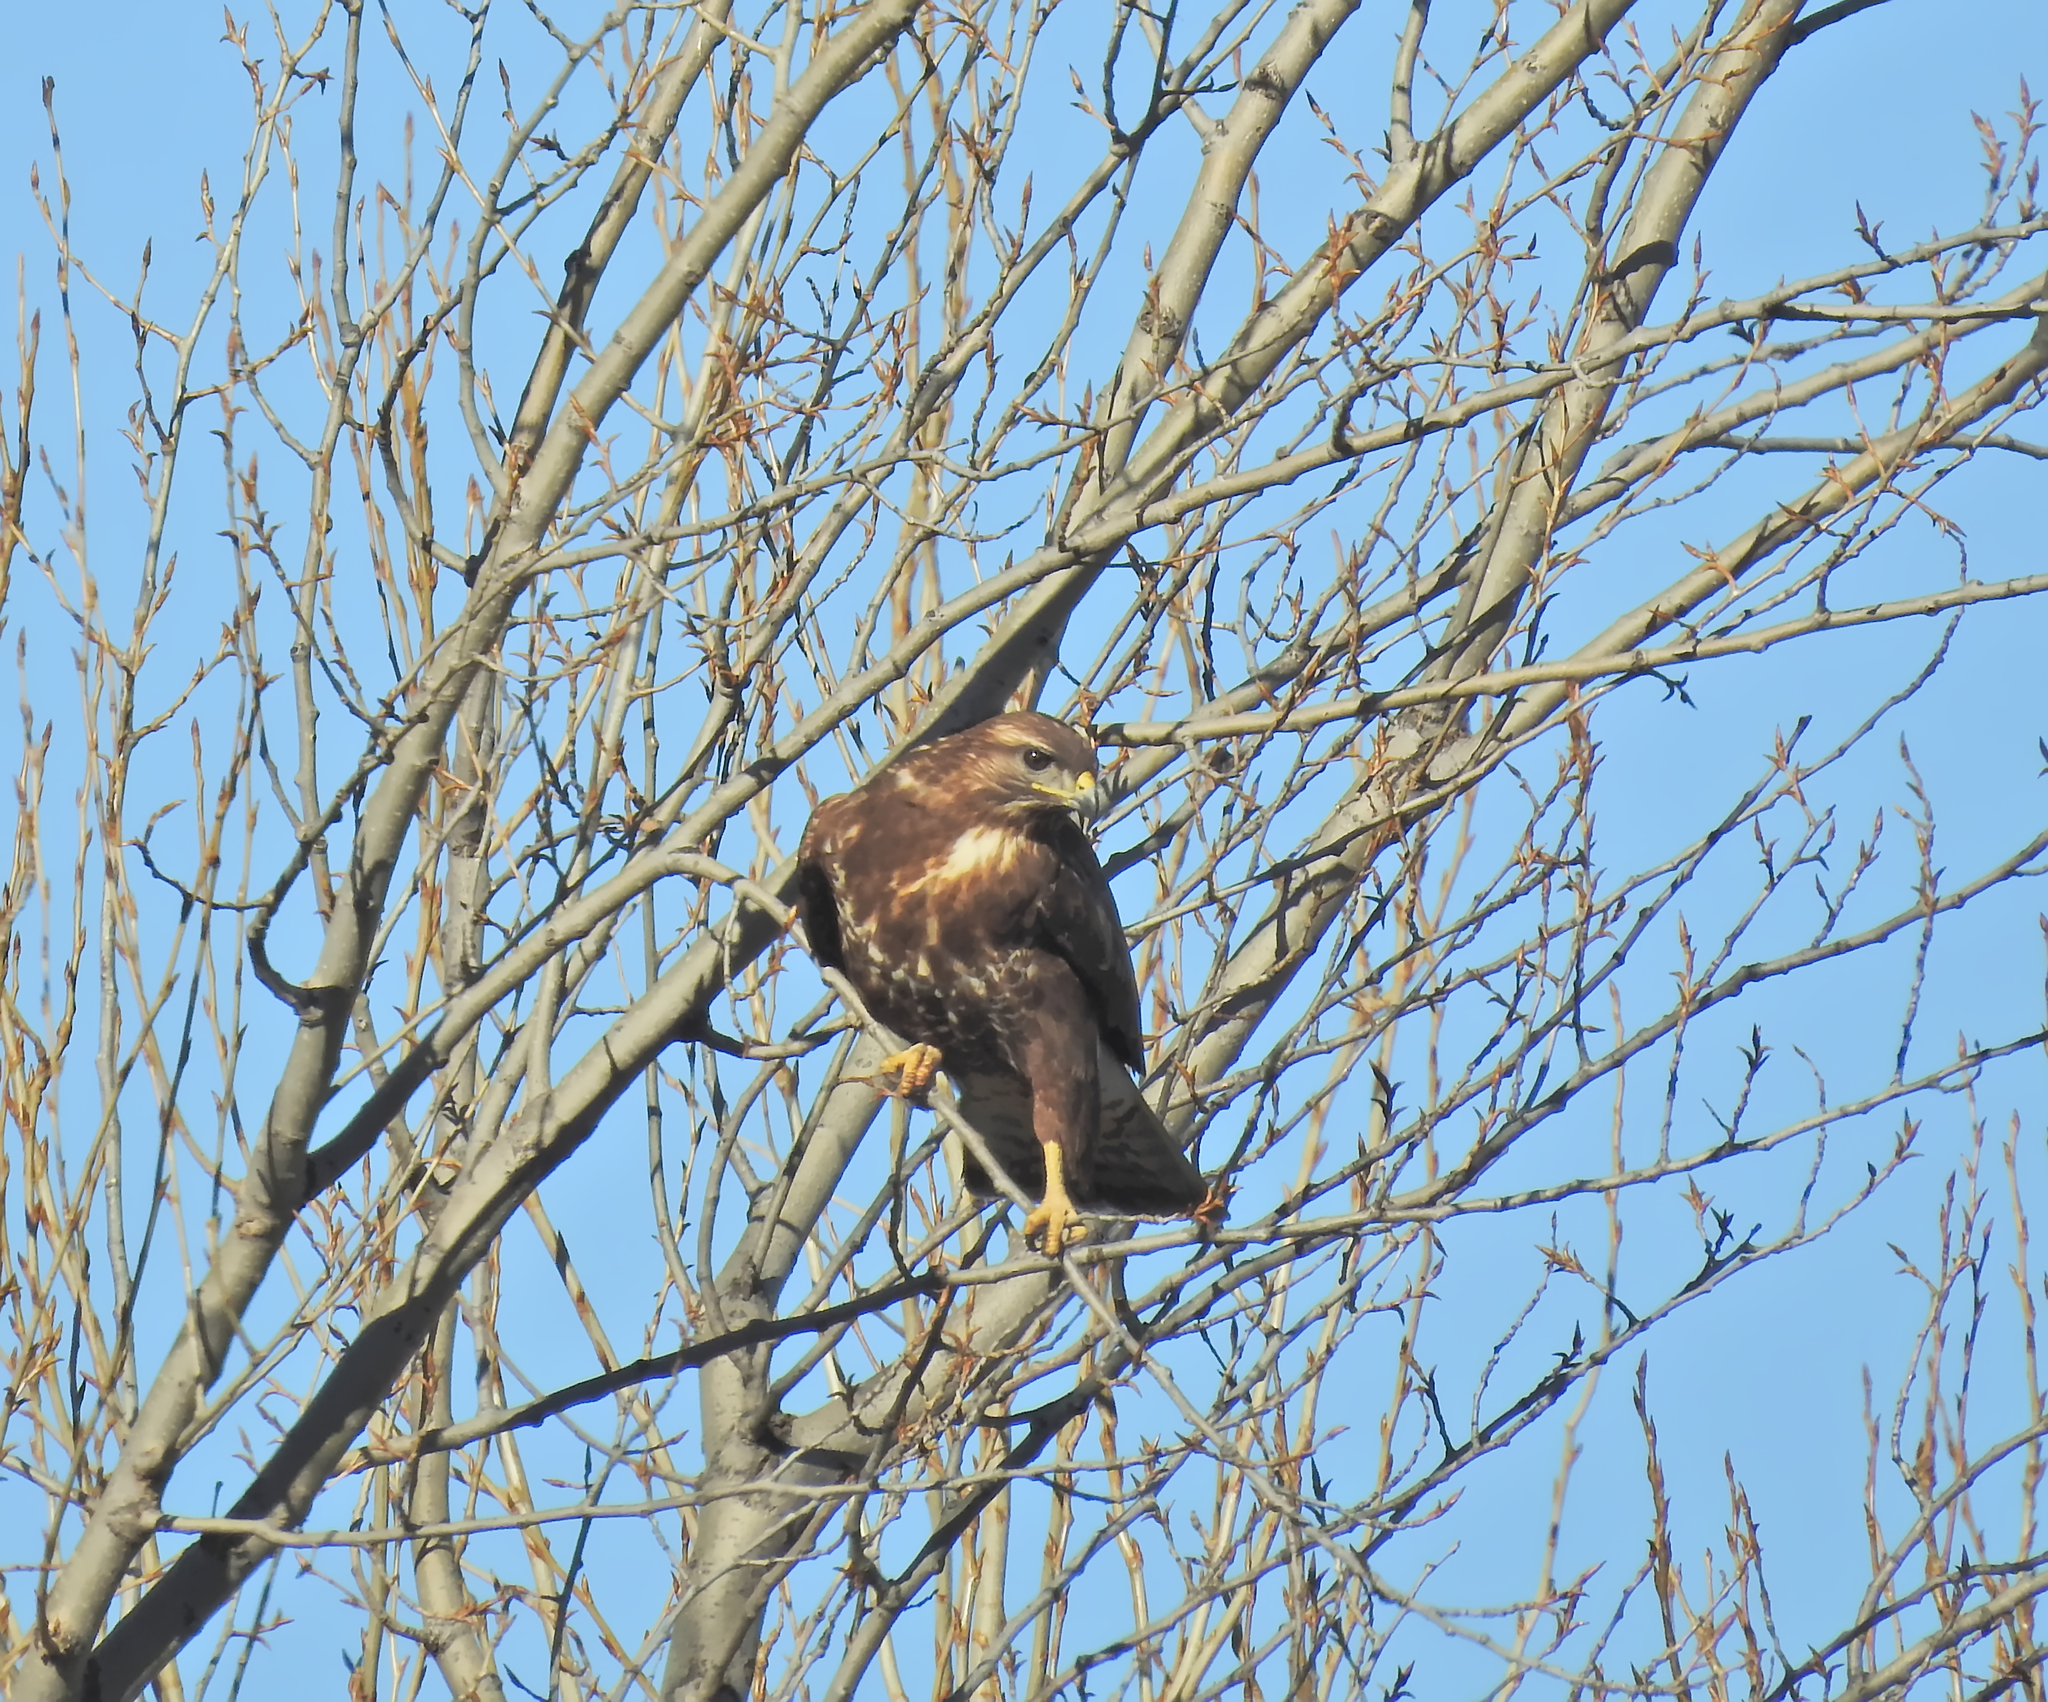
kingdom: Animalia
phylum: Chordata
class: Aves
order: Accipitriformes
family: Accipitridae
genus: Buteo
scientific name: Buteo buteo
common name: Common buzzard
